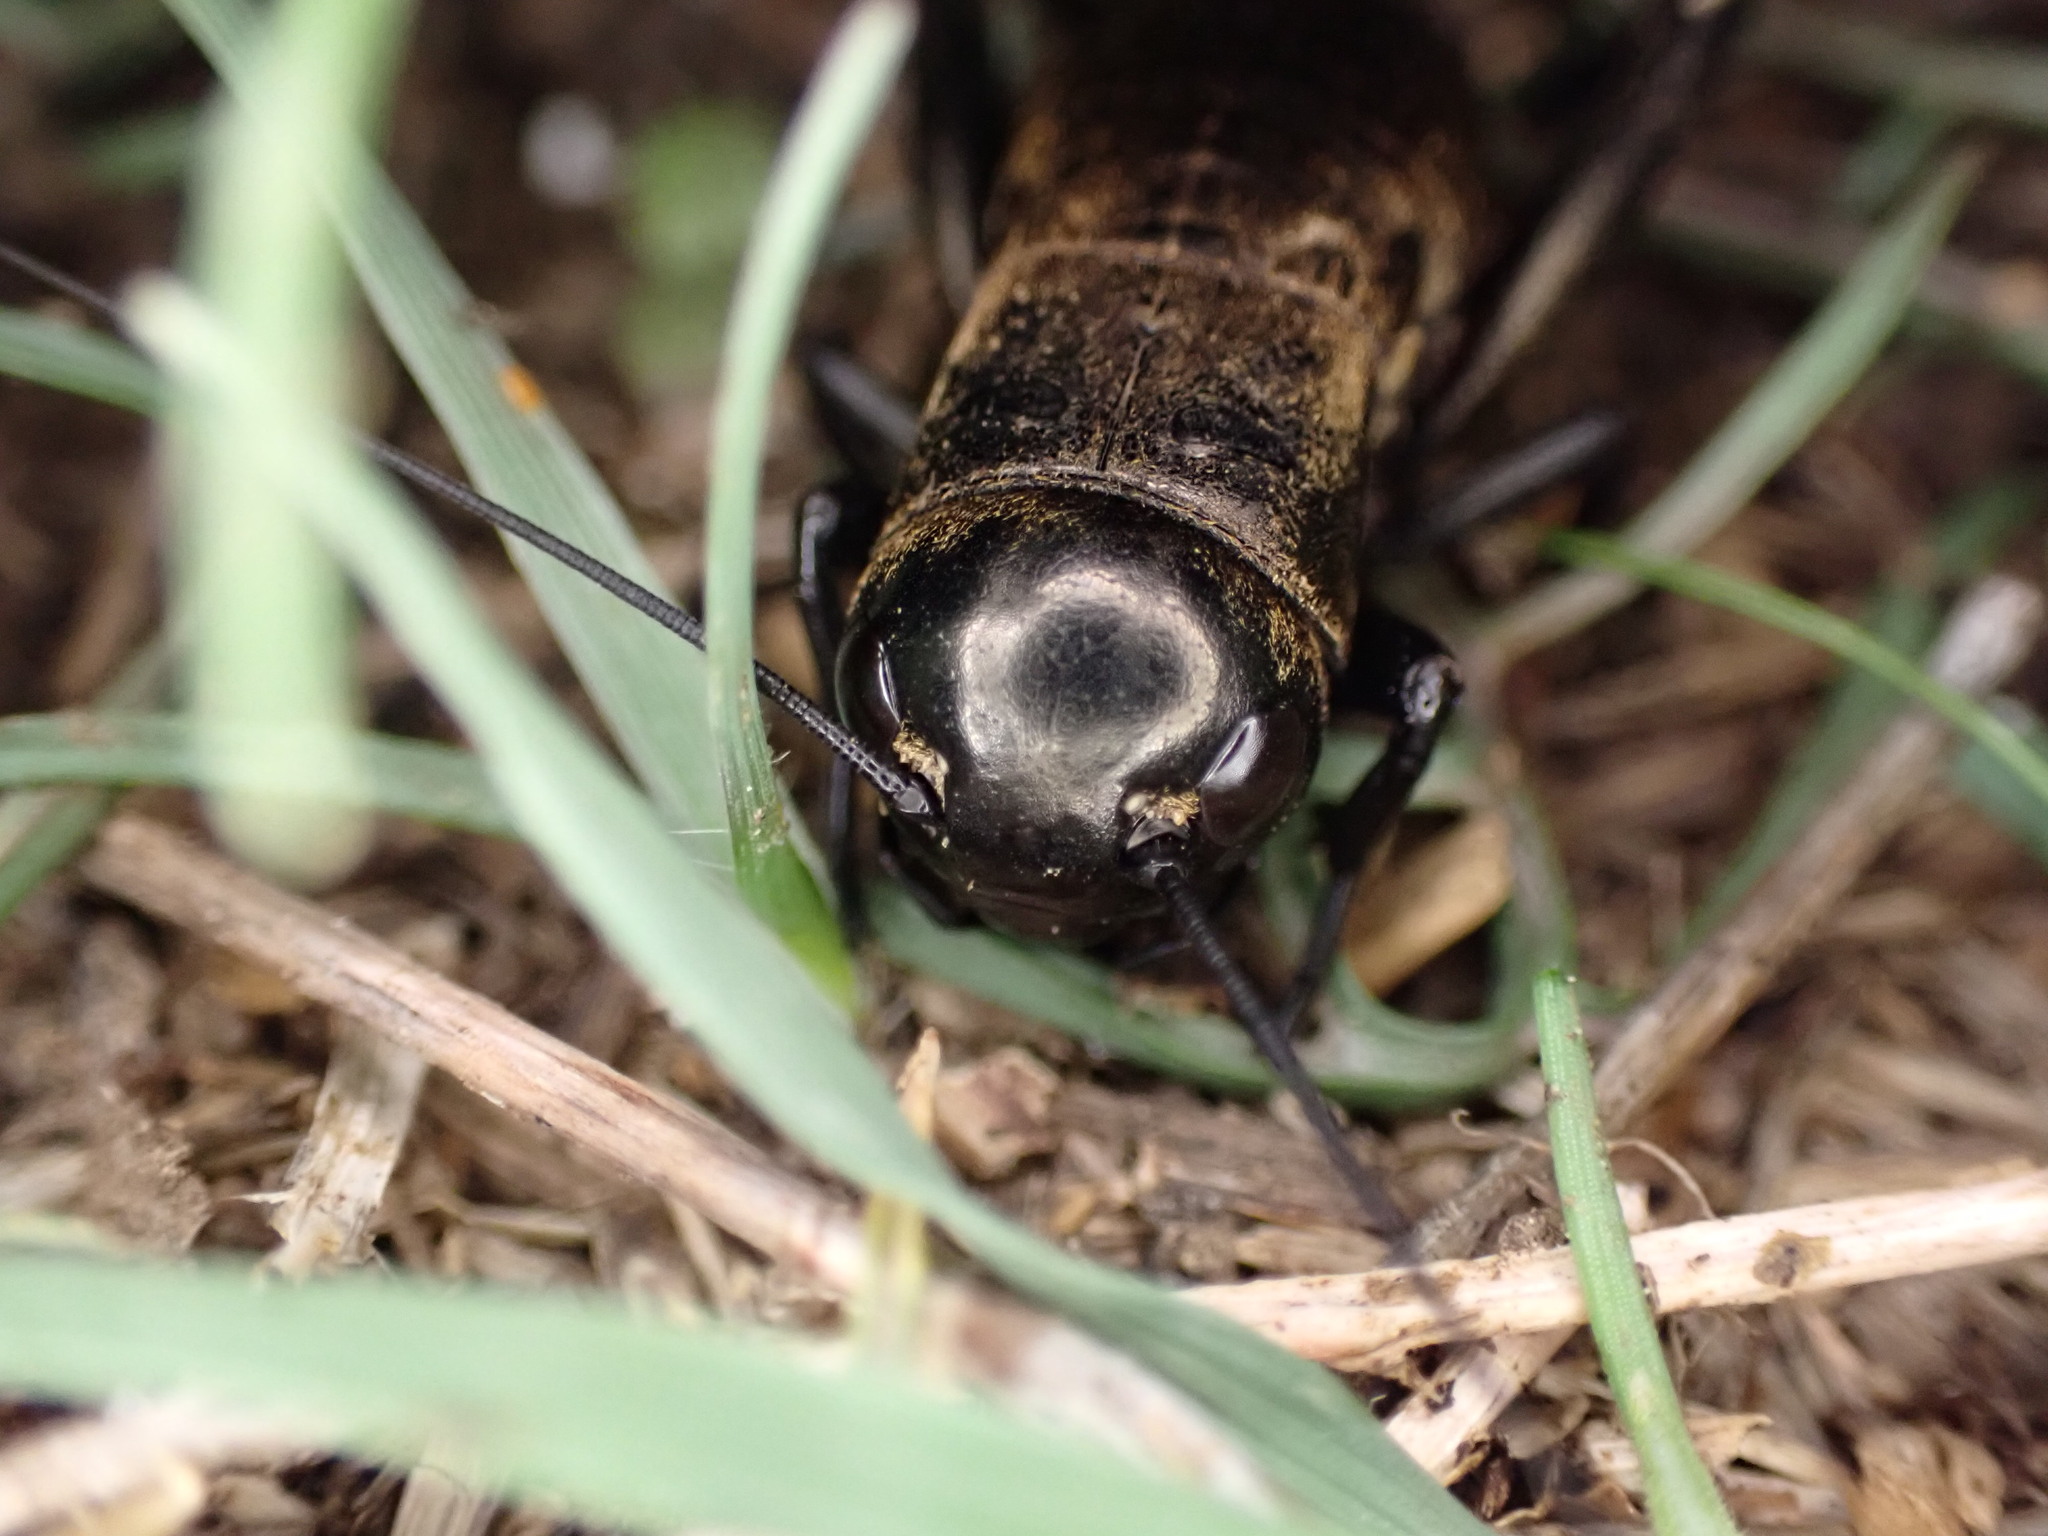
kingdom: Animalia
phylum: Arthropoda
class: Insecta
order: Orthoptera
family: Gryllidae
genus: Gryllus
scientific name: Gryllus campestris
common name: Field cricket
